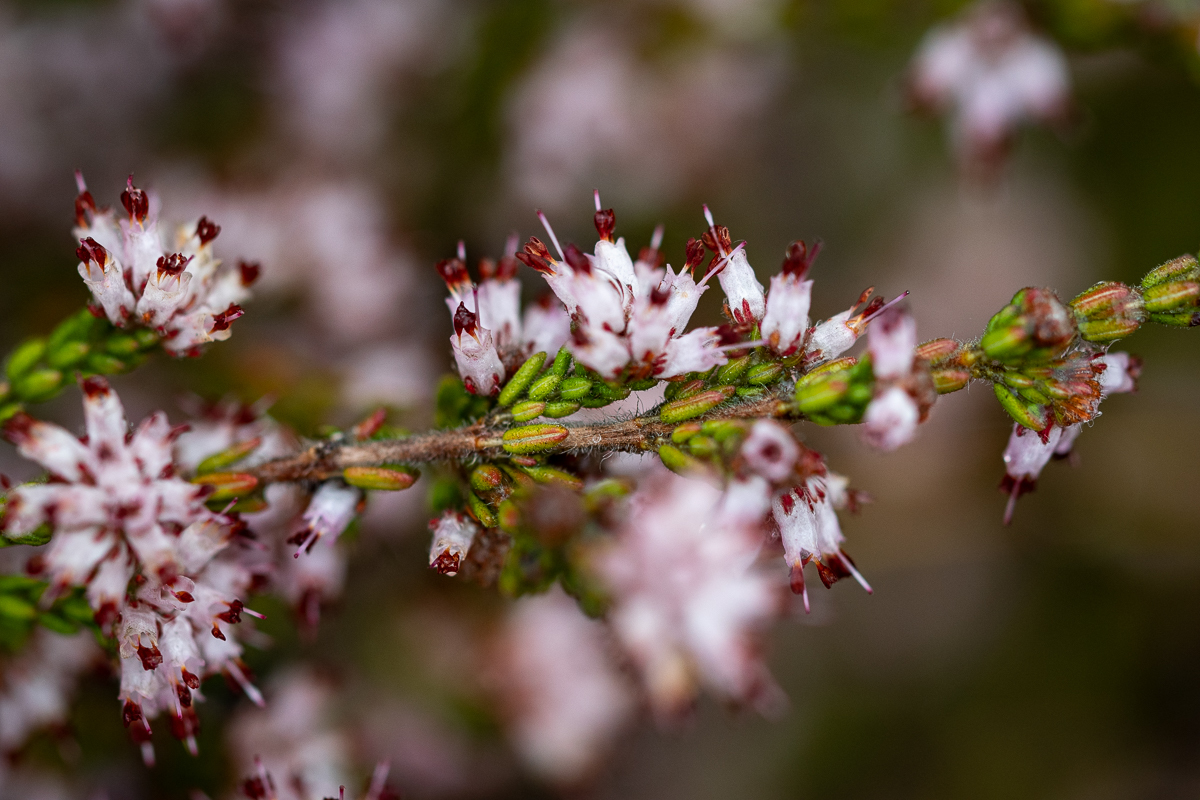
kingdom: Plantae
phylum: Tracheophyta
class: Magnoliopsida
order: Ericales
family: Ericaceae
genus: Erica
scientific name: Erica ericoides
